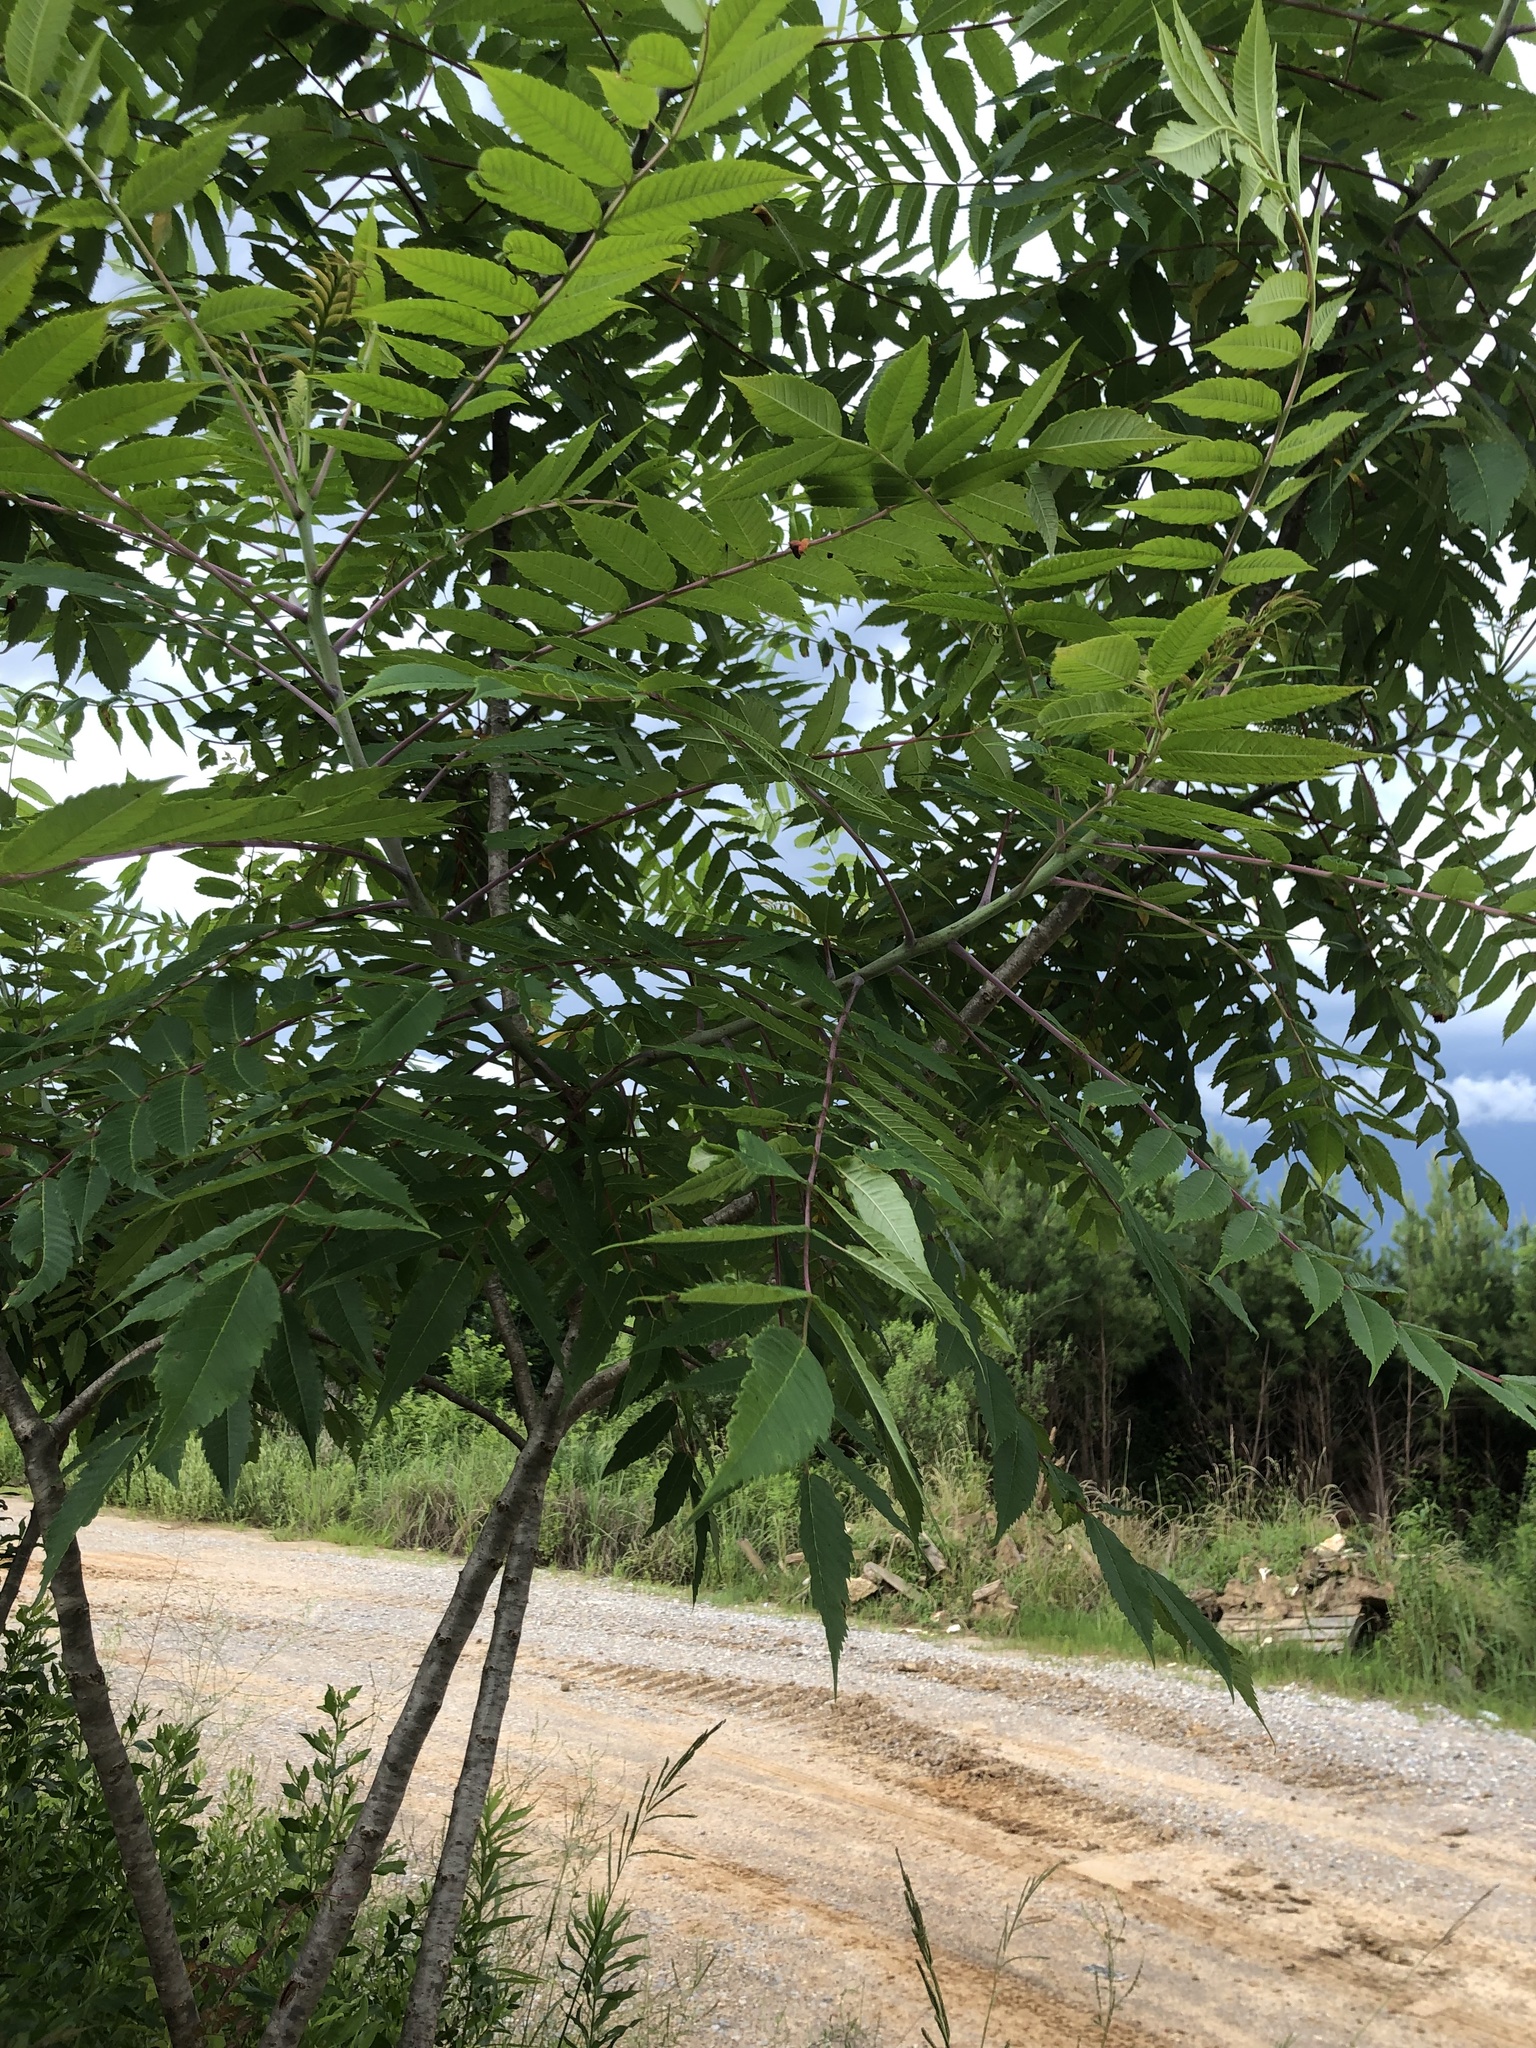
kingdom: Plantae
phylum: Tracheophyta
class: Magnoliopsida
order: Sapindales
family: Anacardiaceae
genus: Rhus
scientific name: Rhus glabra
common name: Scarlet sumac
